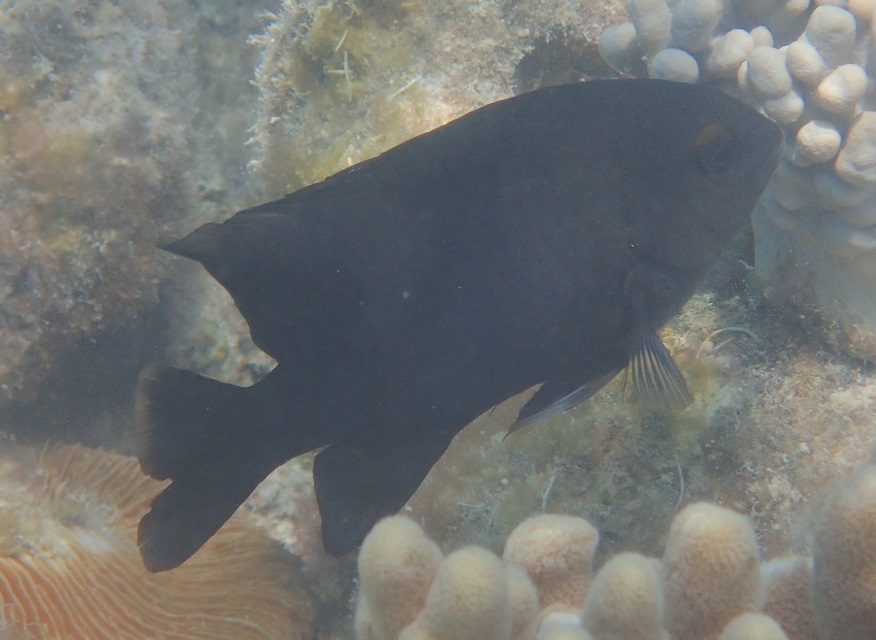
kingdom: Animalia
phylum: Chordata
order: Perciformes
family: Pomacentridae
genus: Hemiglyphidodon
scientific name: Hemiglyphidodon plagiometopon
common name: Lagoon damsel
